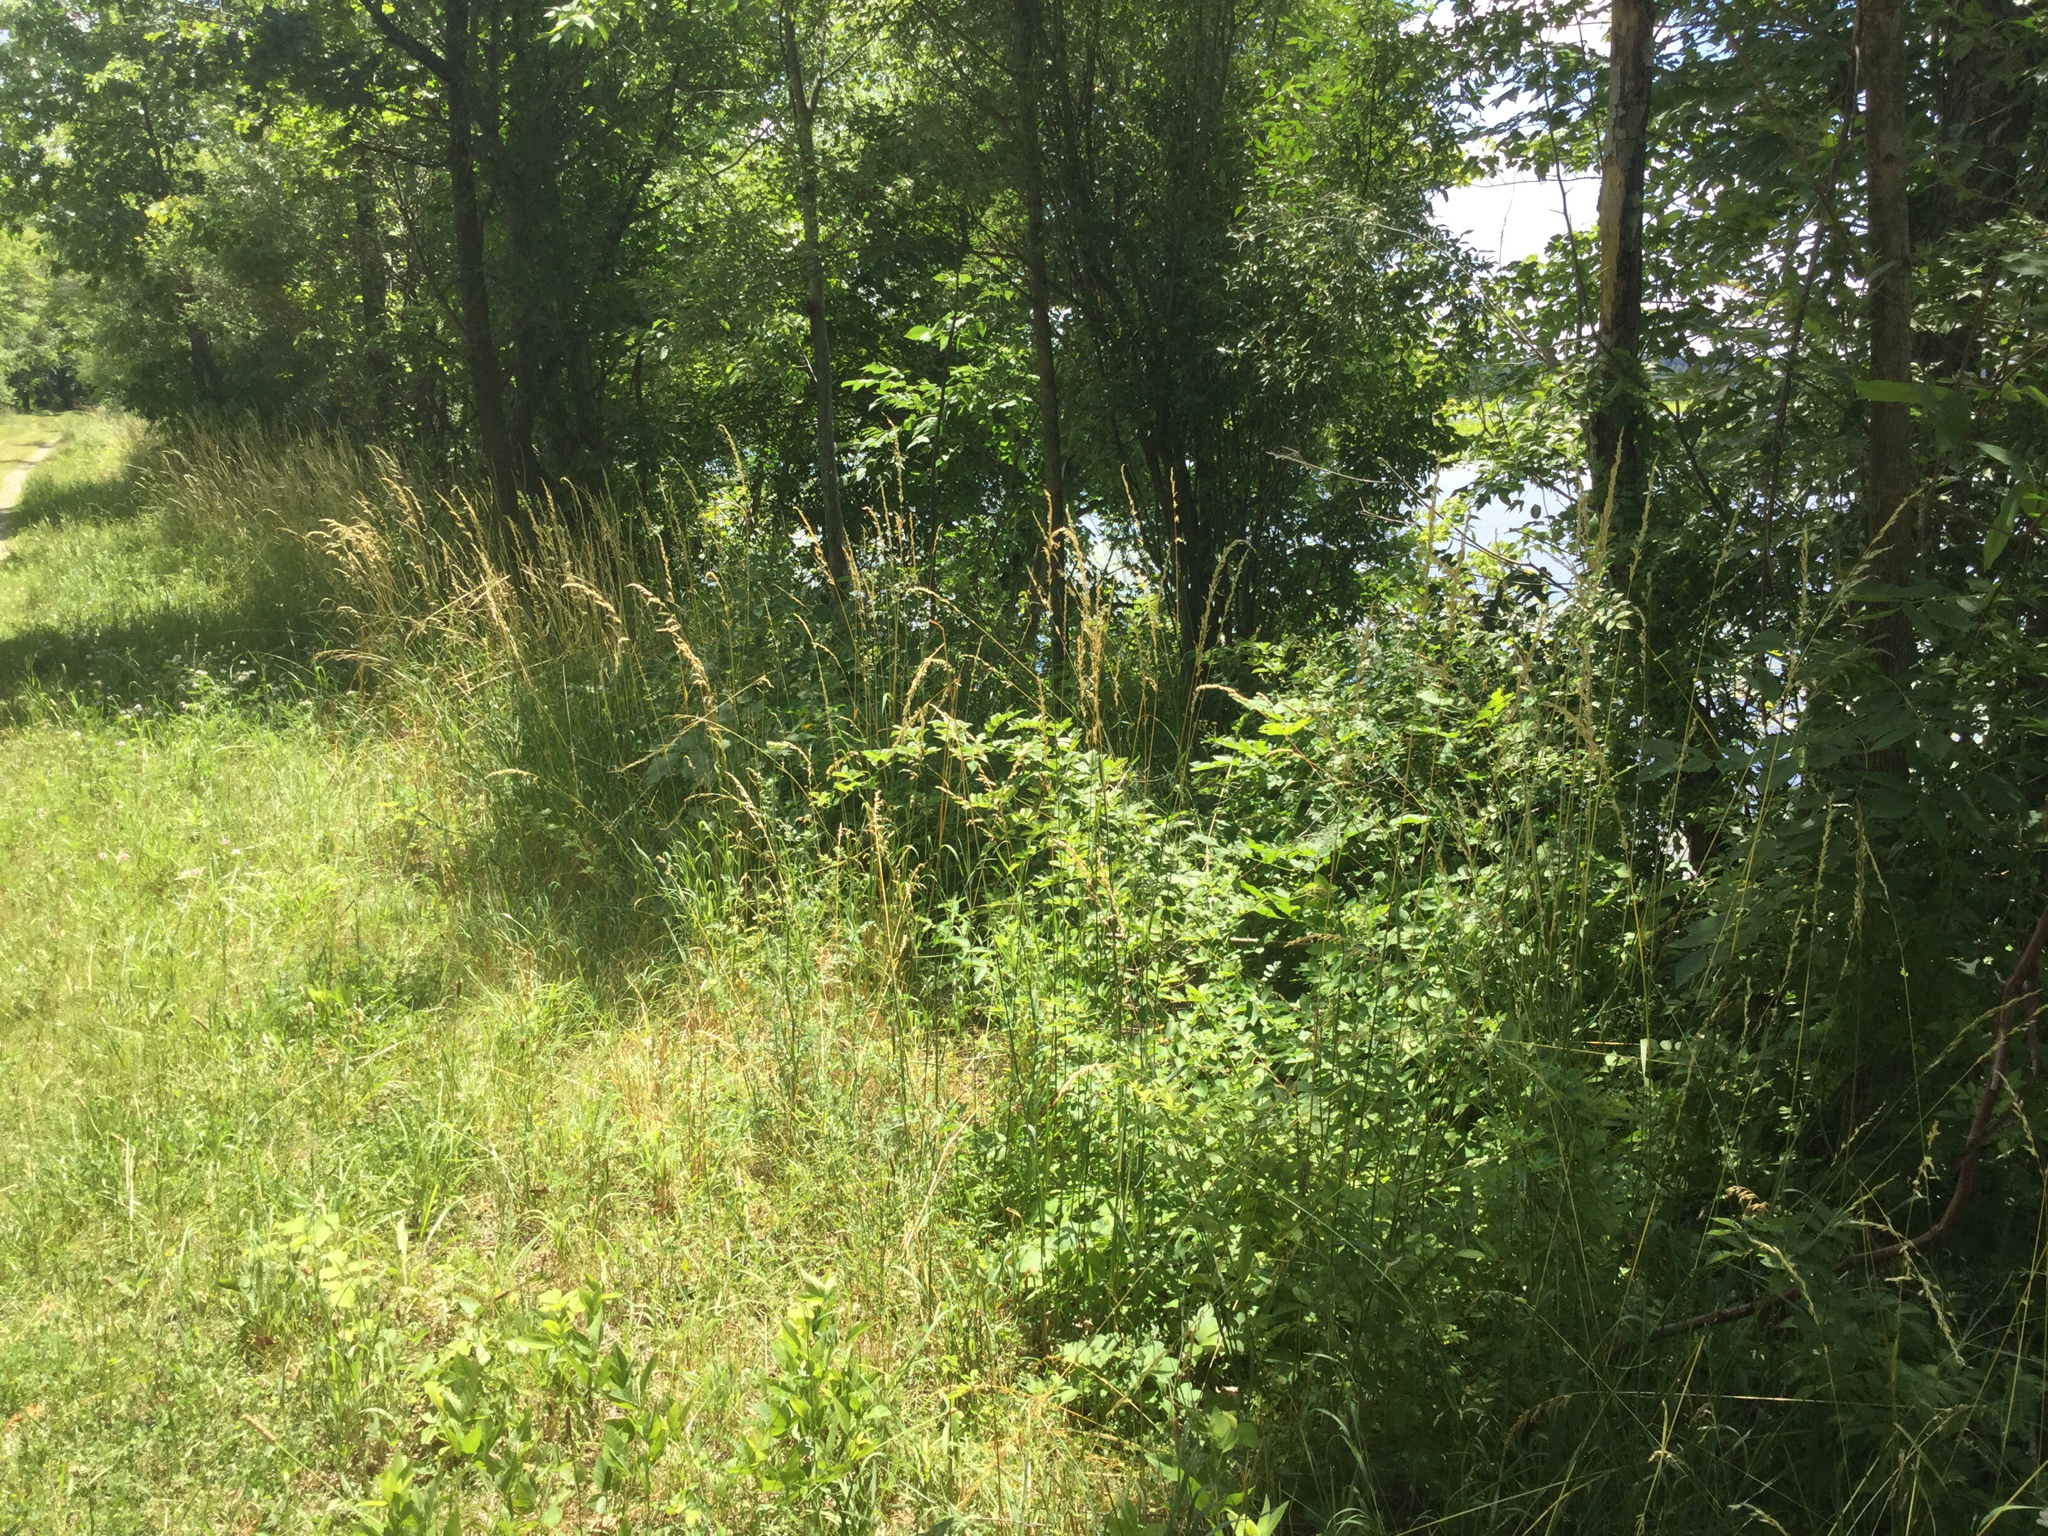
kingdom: Plantae
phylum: Tracheophyta
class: Liliopsida
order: Poales
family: Poaceae
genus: Arrhenatherum
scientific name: Arrhenatherum elatius
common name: Tall oatgrass
